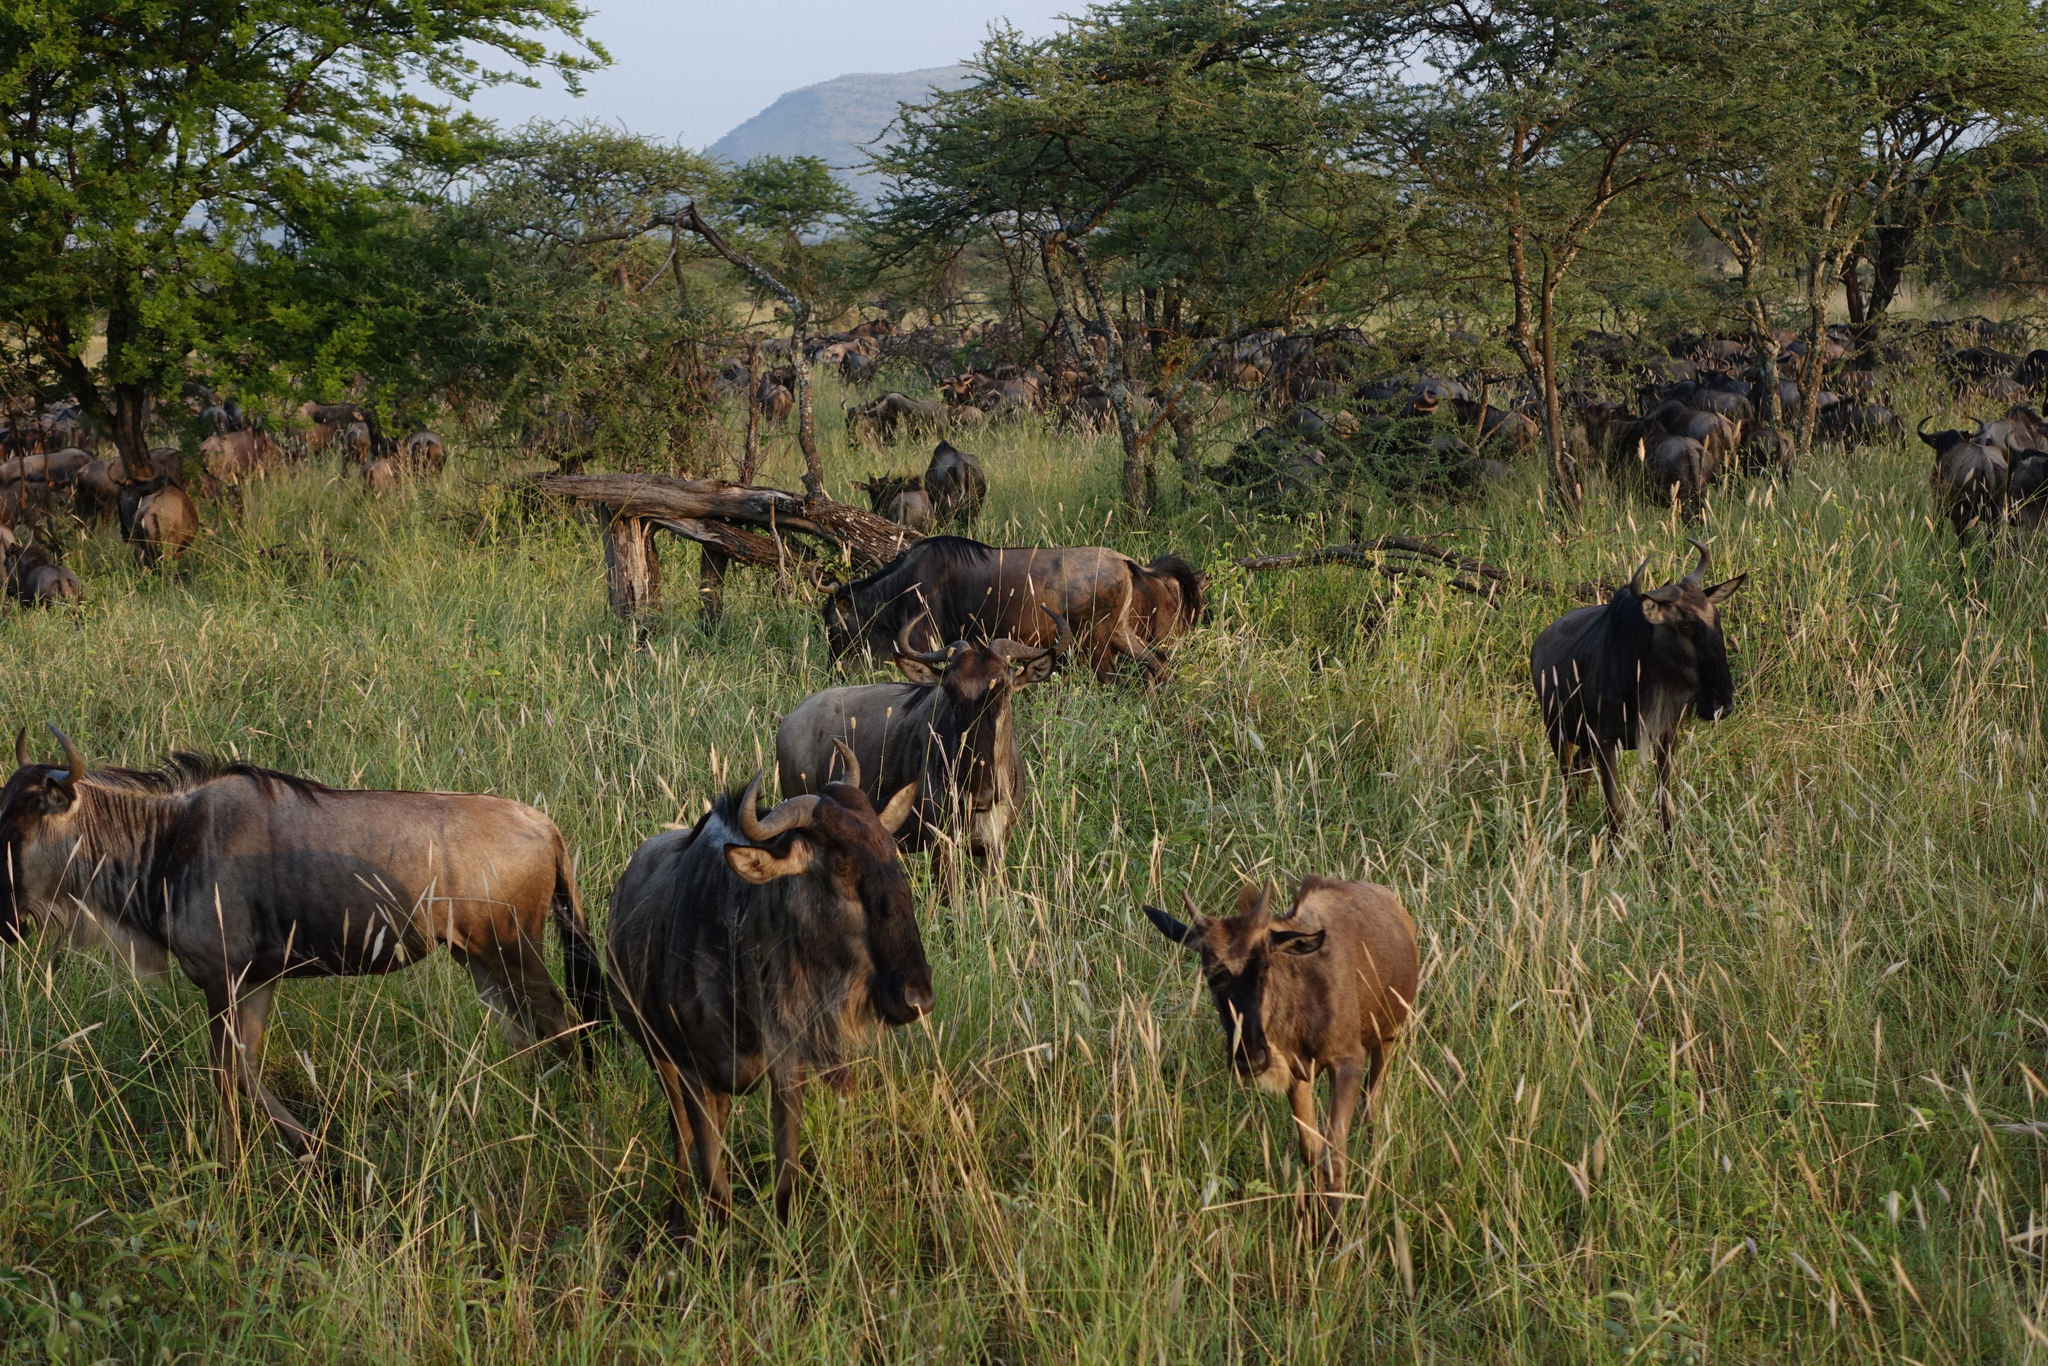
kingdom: Animalia
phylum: Chordata
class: Mammalia
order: Artiodactyla
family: Bovidae
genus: Connochaetes
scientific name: Connochaetes taurinus
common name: Blue wildebeest
